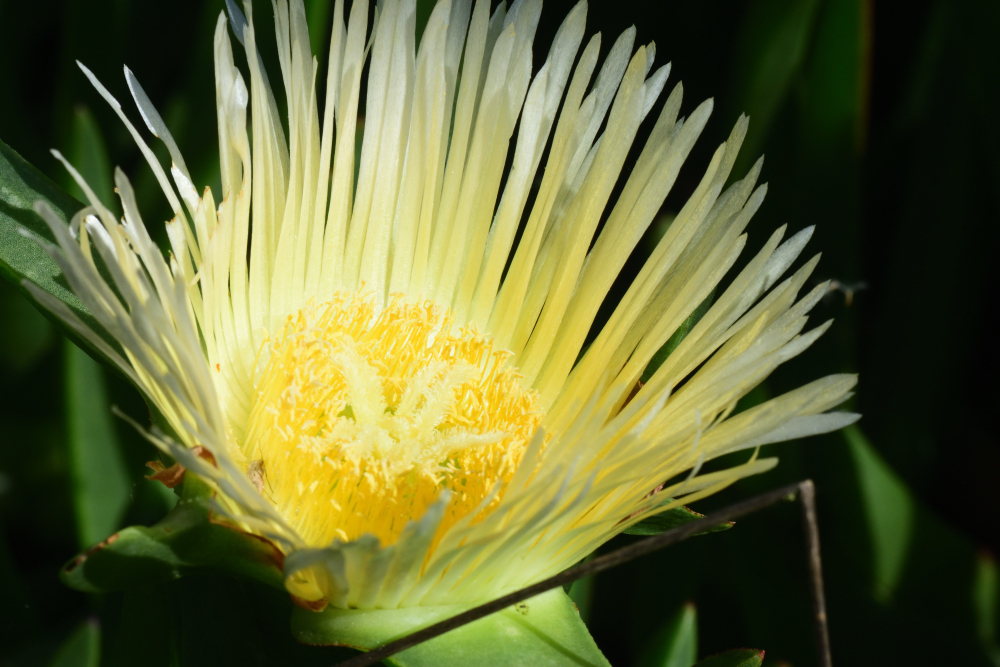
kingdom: Plantae
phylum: Tracheophyta
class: Magnoliopsida
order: Caryophyllales
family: Aizoaceae
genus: Carpobrotus
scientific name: Carpobrotus edulis
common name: Hottentot-fig
